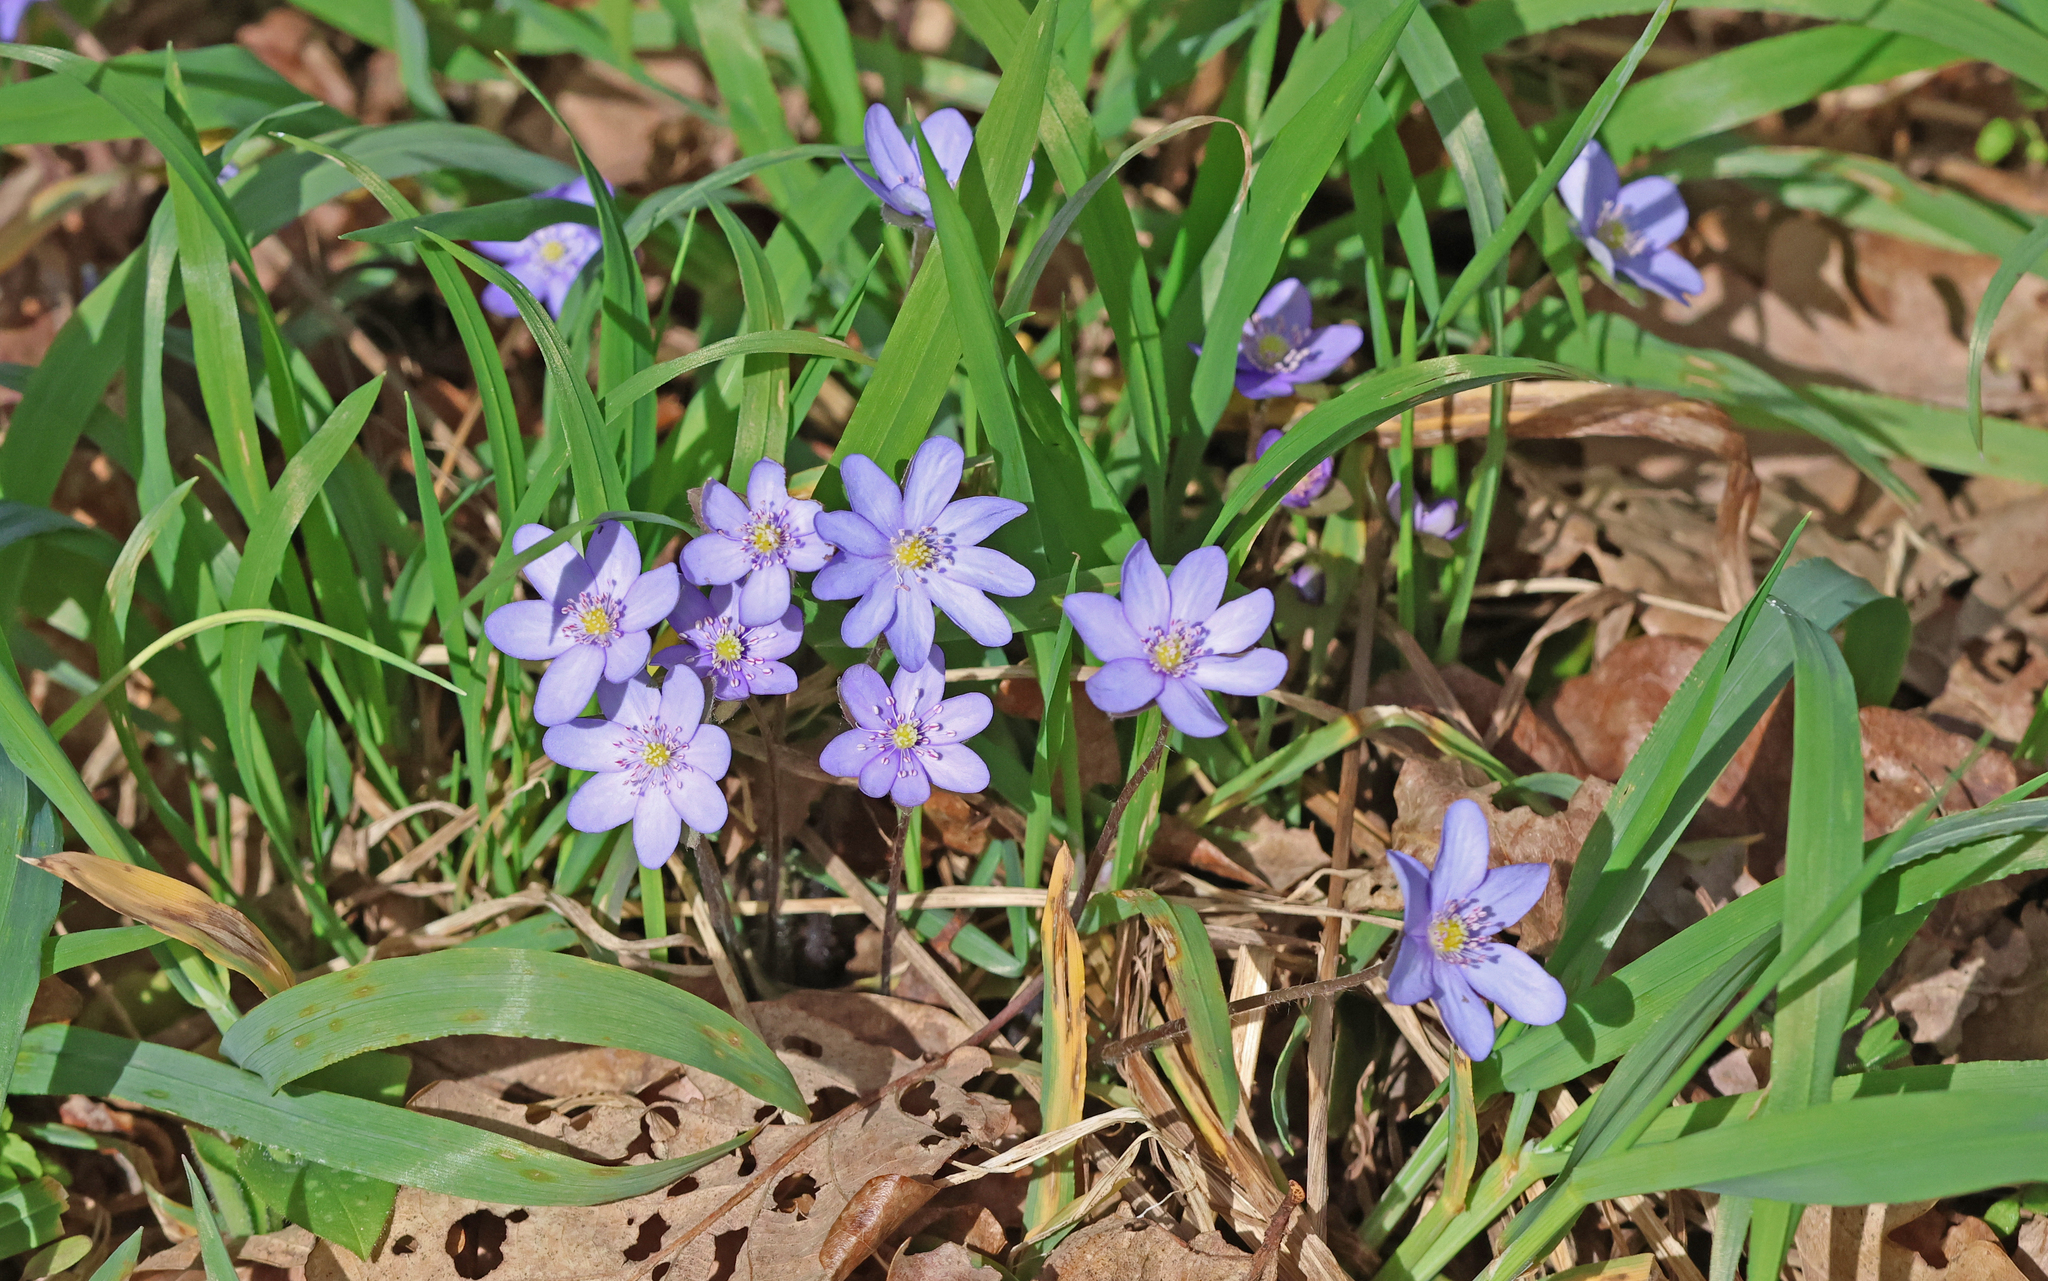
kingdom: Plantae
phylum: Tracheophyta
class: Magnoliopsida
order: Ranunculales
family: Ranunculaceae
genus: Hepatica
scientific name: Hepatica nobilis
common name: Liverleaf
